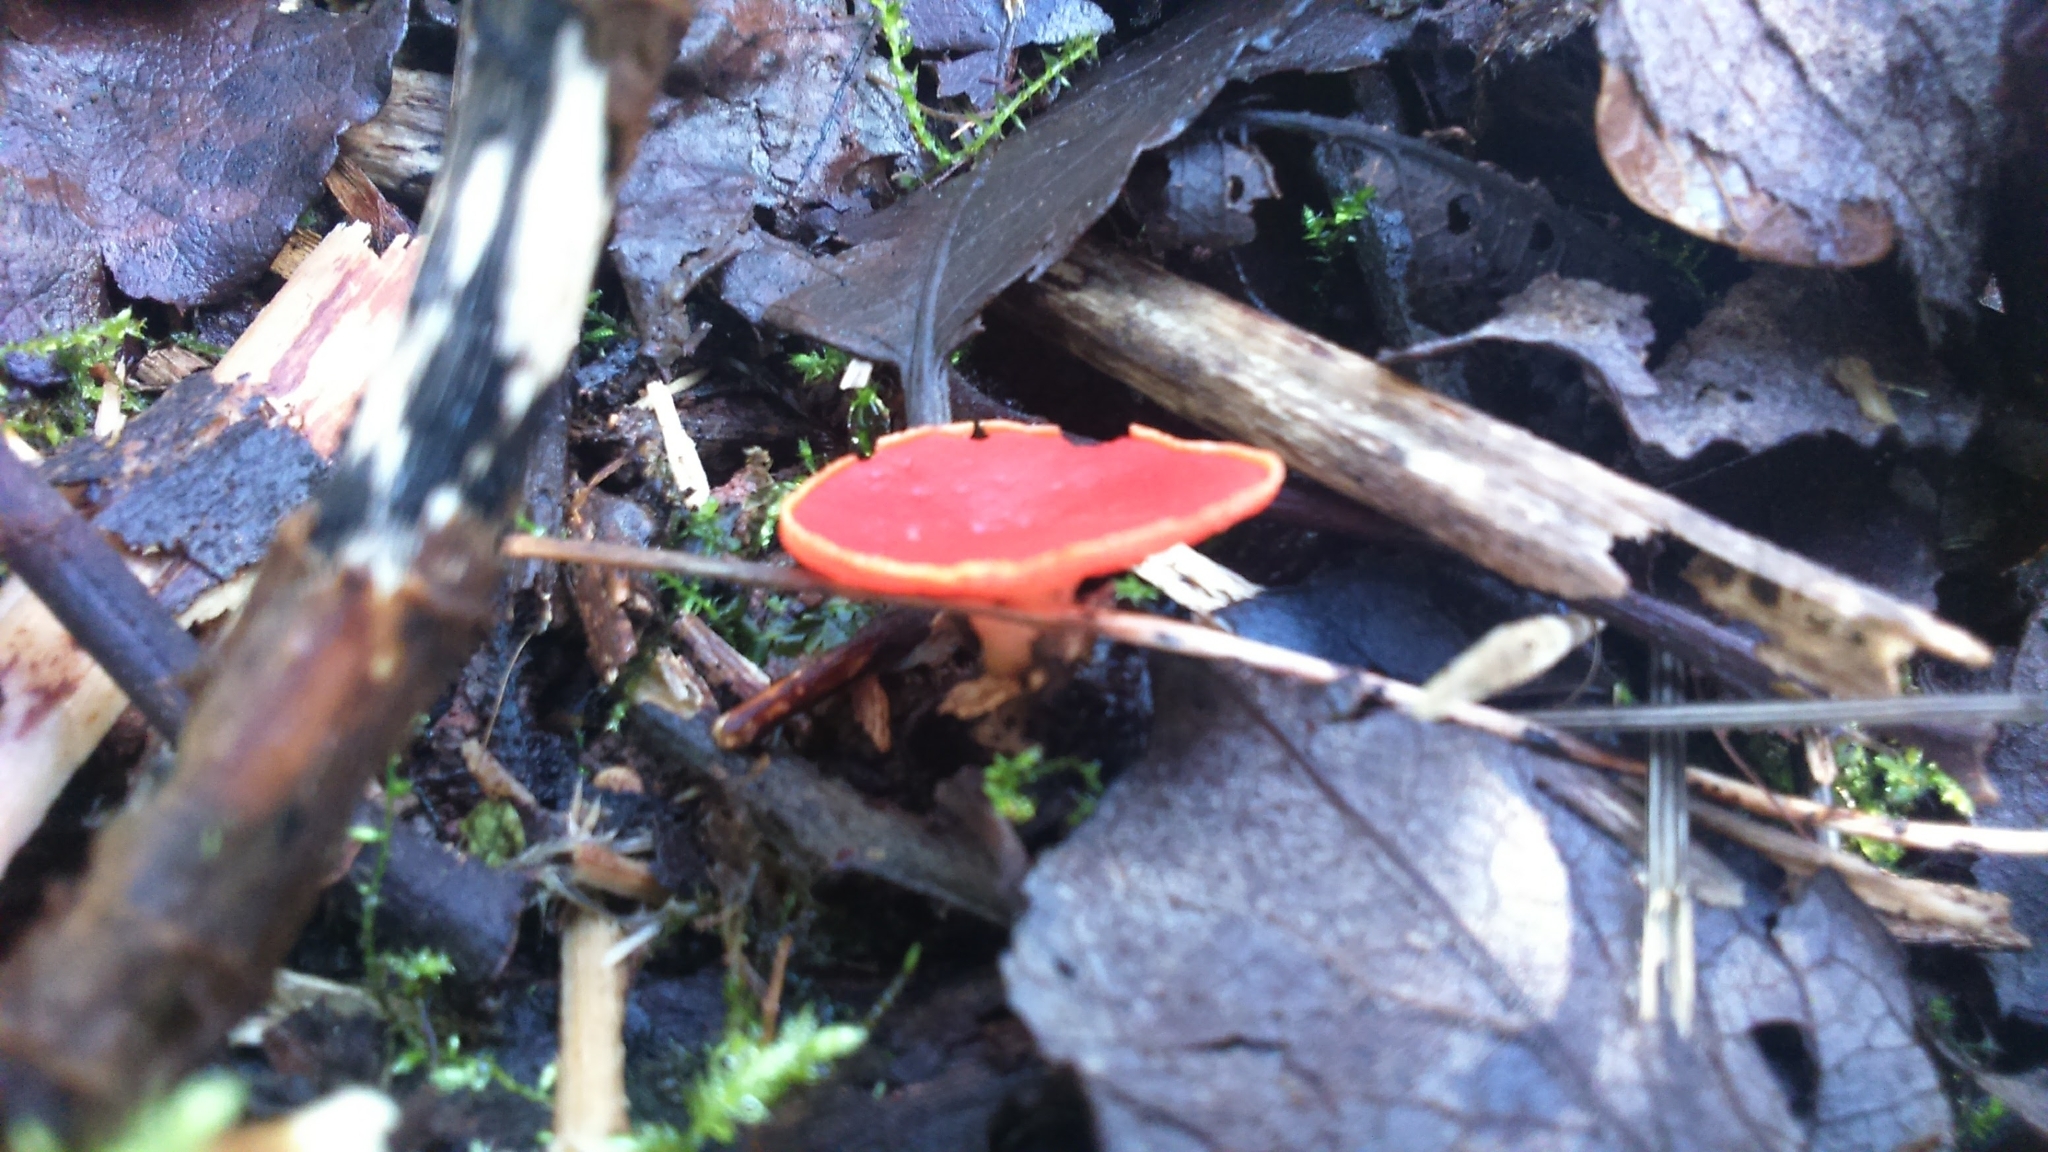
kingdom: Fungi
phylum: Ascomycota
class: Pezizomycetes
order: Pezizales
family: Sarcoscyphaceae
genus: Sarcoscypha
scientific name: Sarcoscypha
